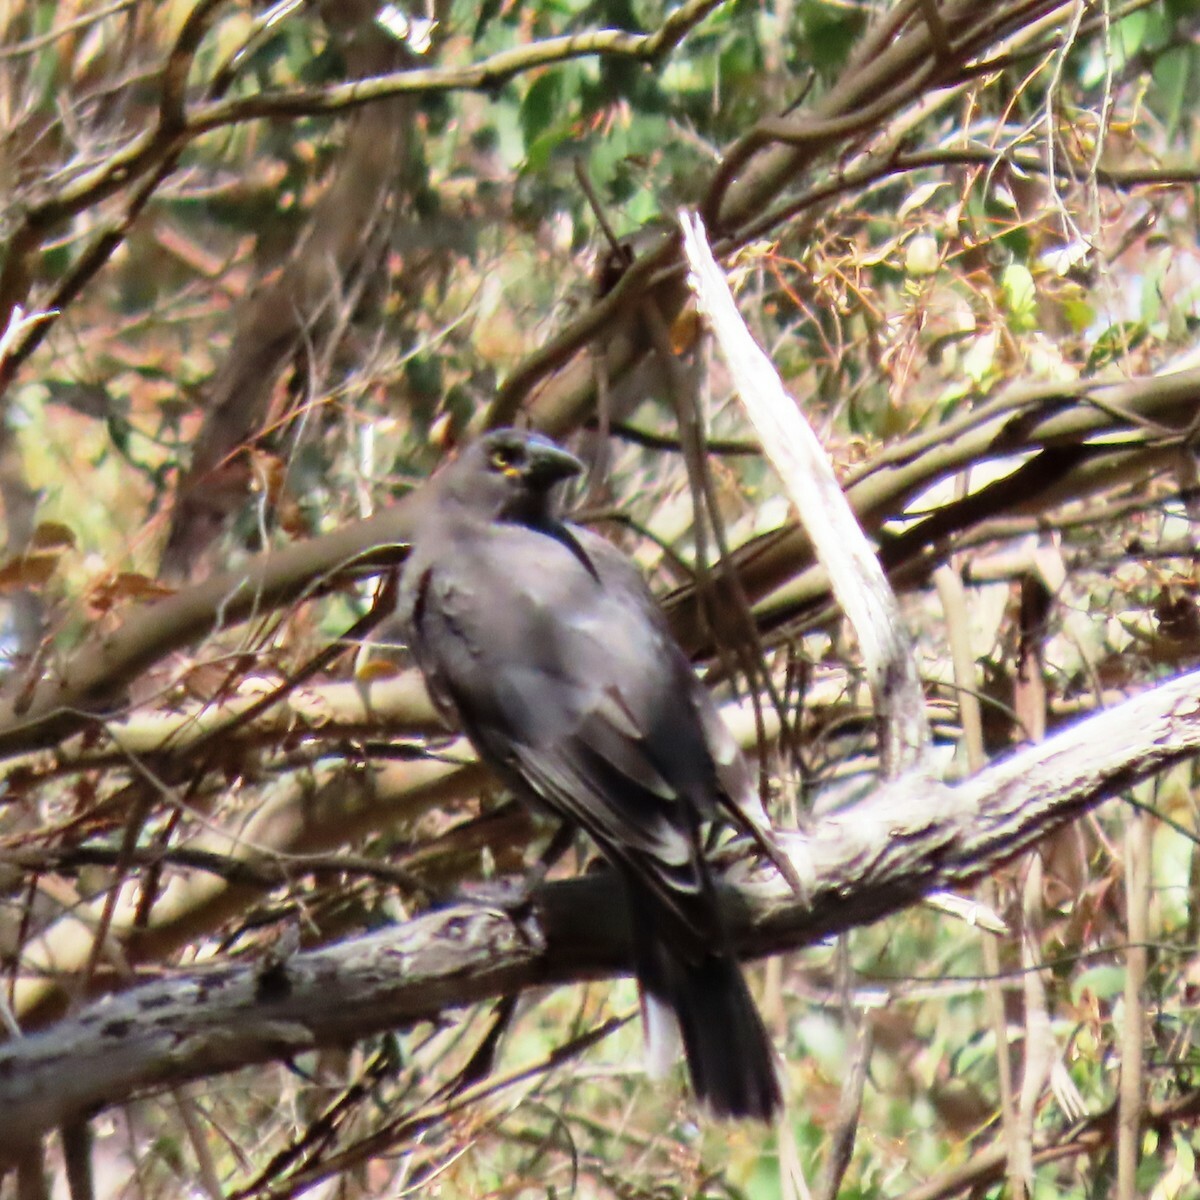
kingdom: Animalia
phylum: Chordata
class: Aves
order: Passeriformes
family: Cracticidae
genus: Strepera
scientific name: Strepera versicolor
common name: Grey currawong
